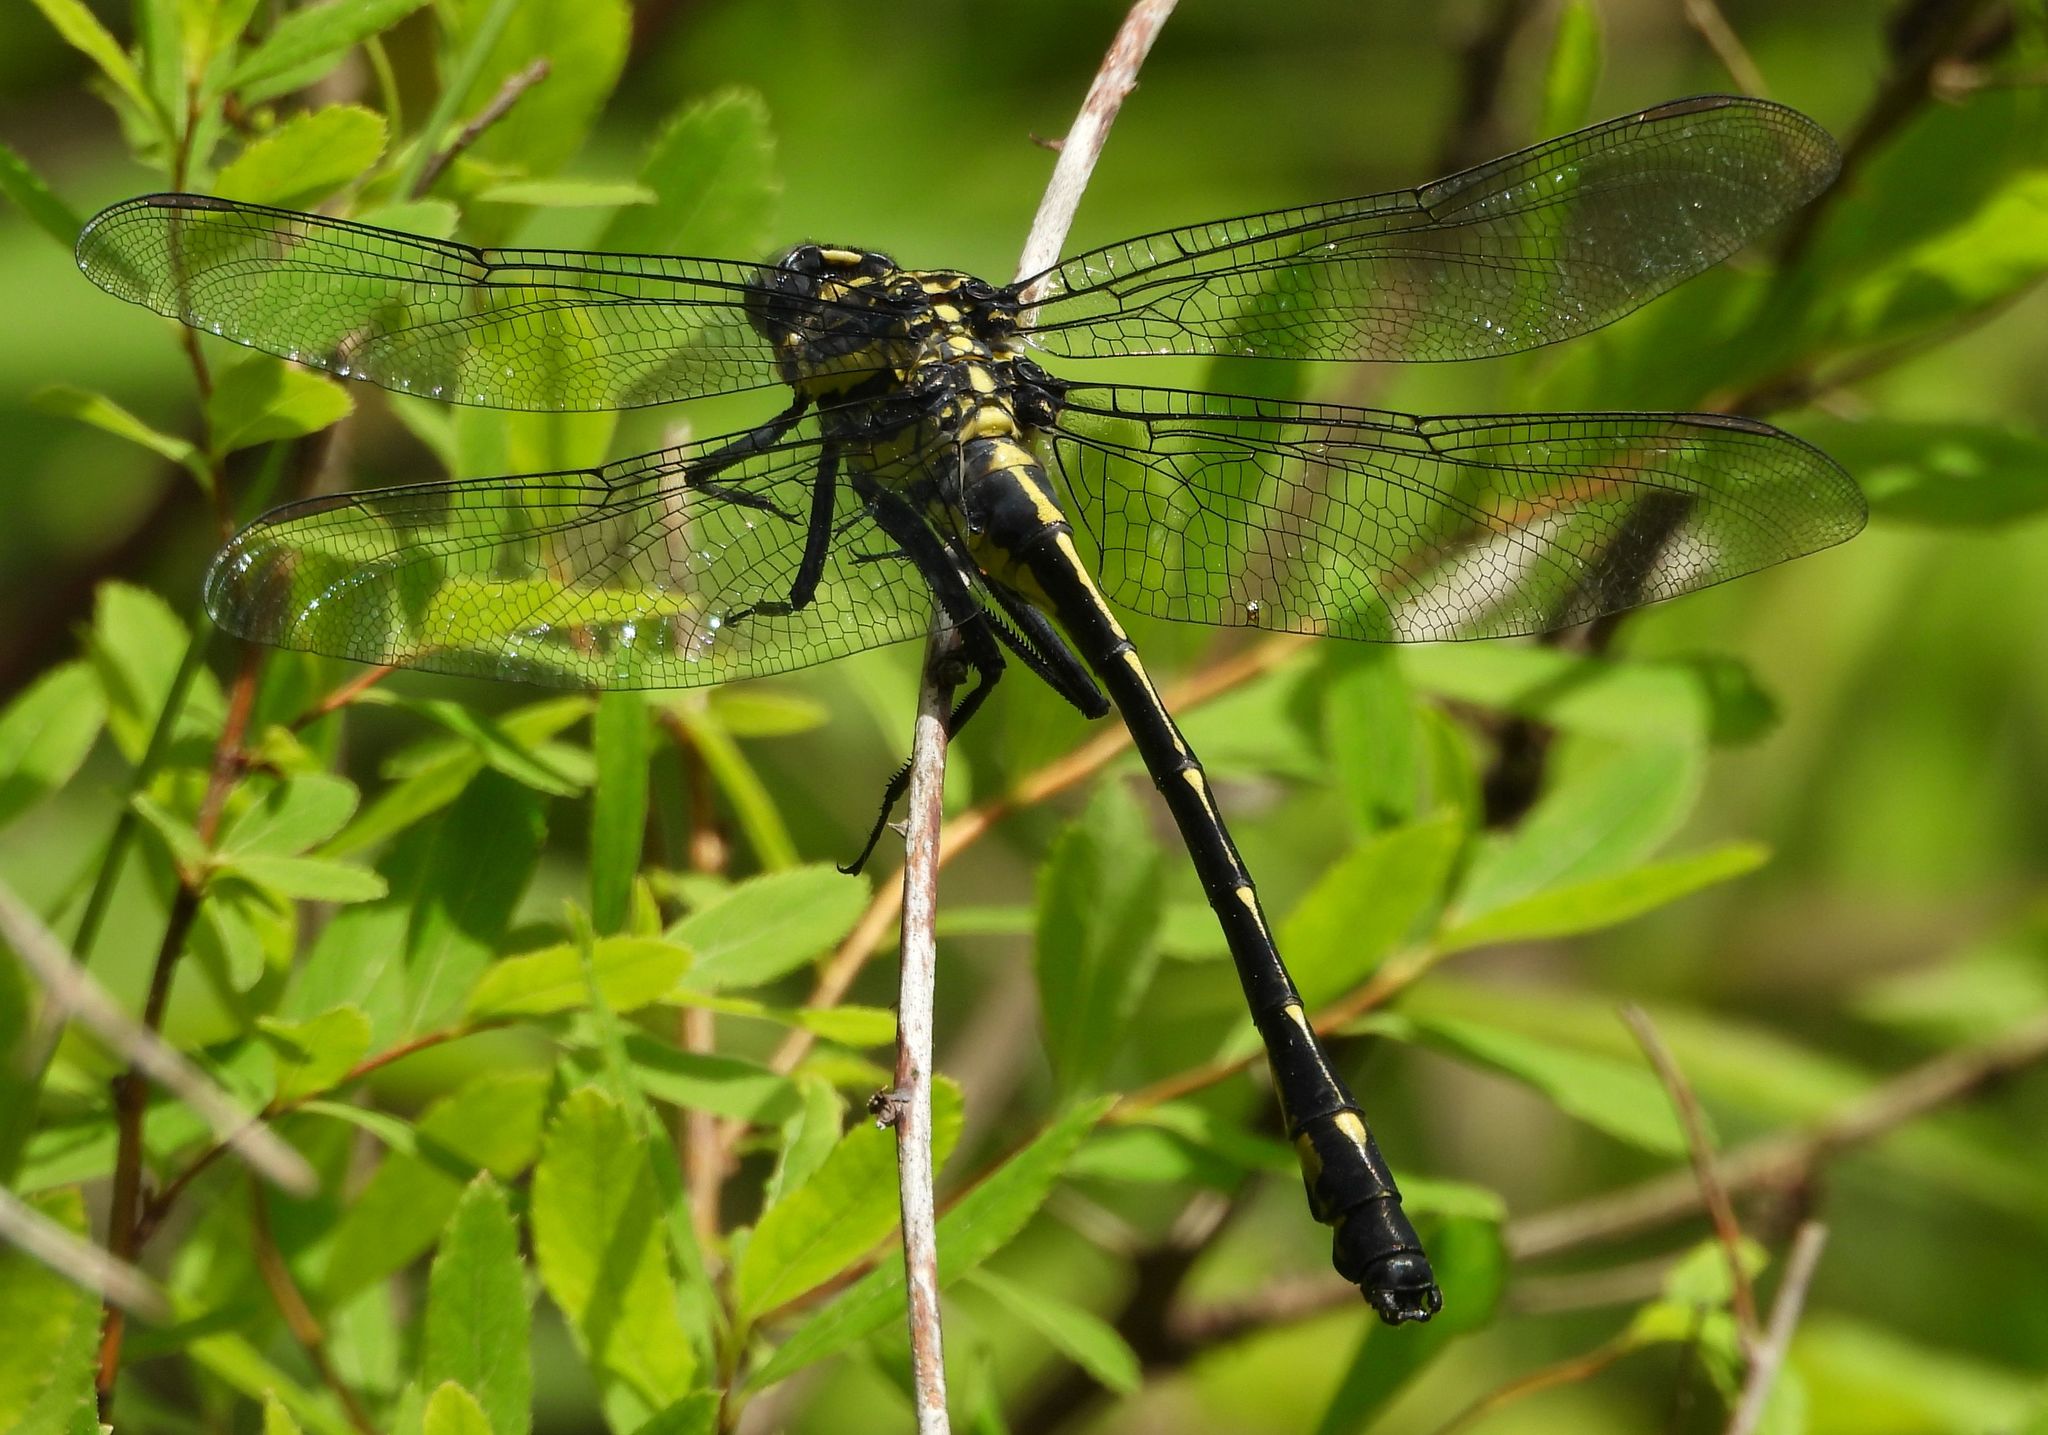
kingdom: Animalia
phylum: Arthropoda
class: Insecta
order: Odonata
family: Gomphidae
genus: Hagenius
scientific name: Hagenius brevistylus
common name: Dragonhunter
